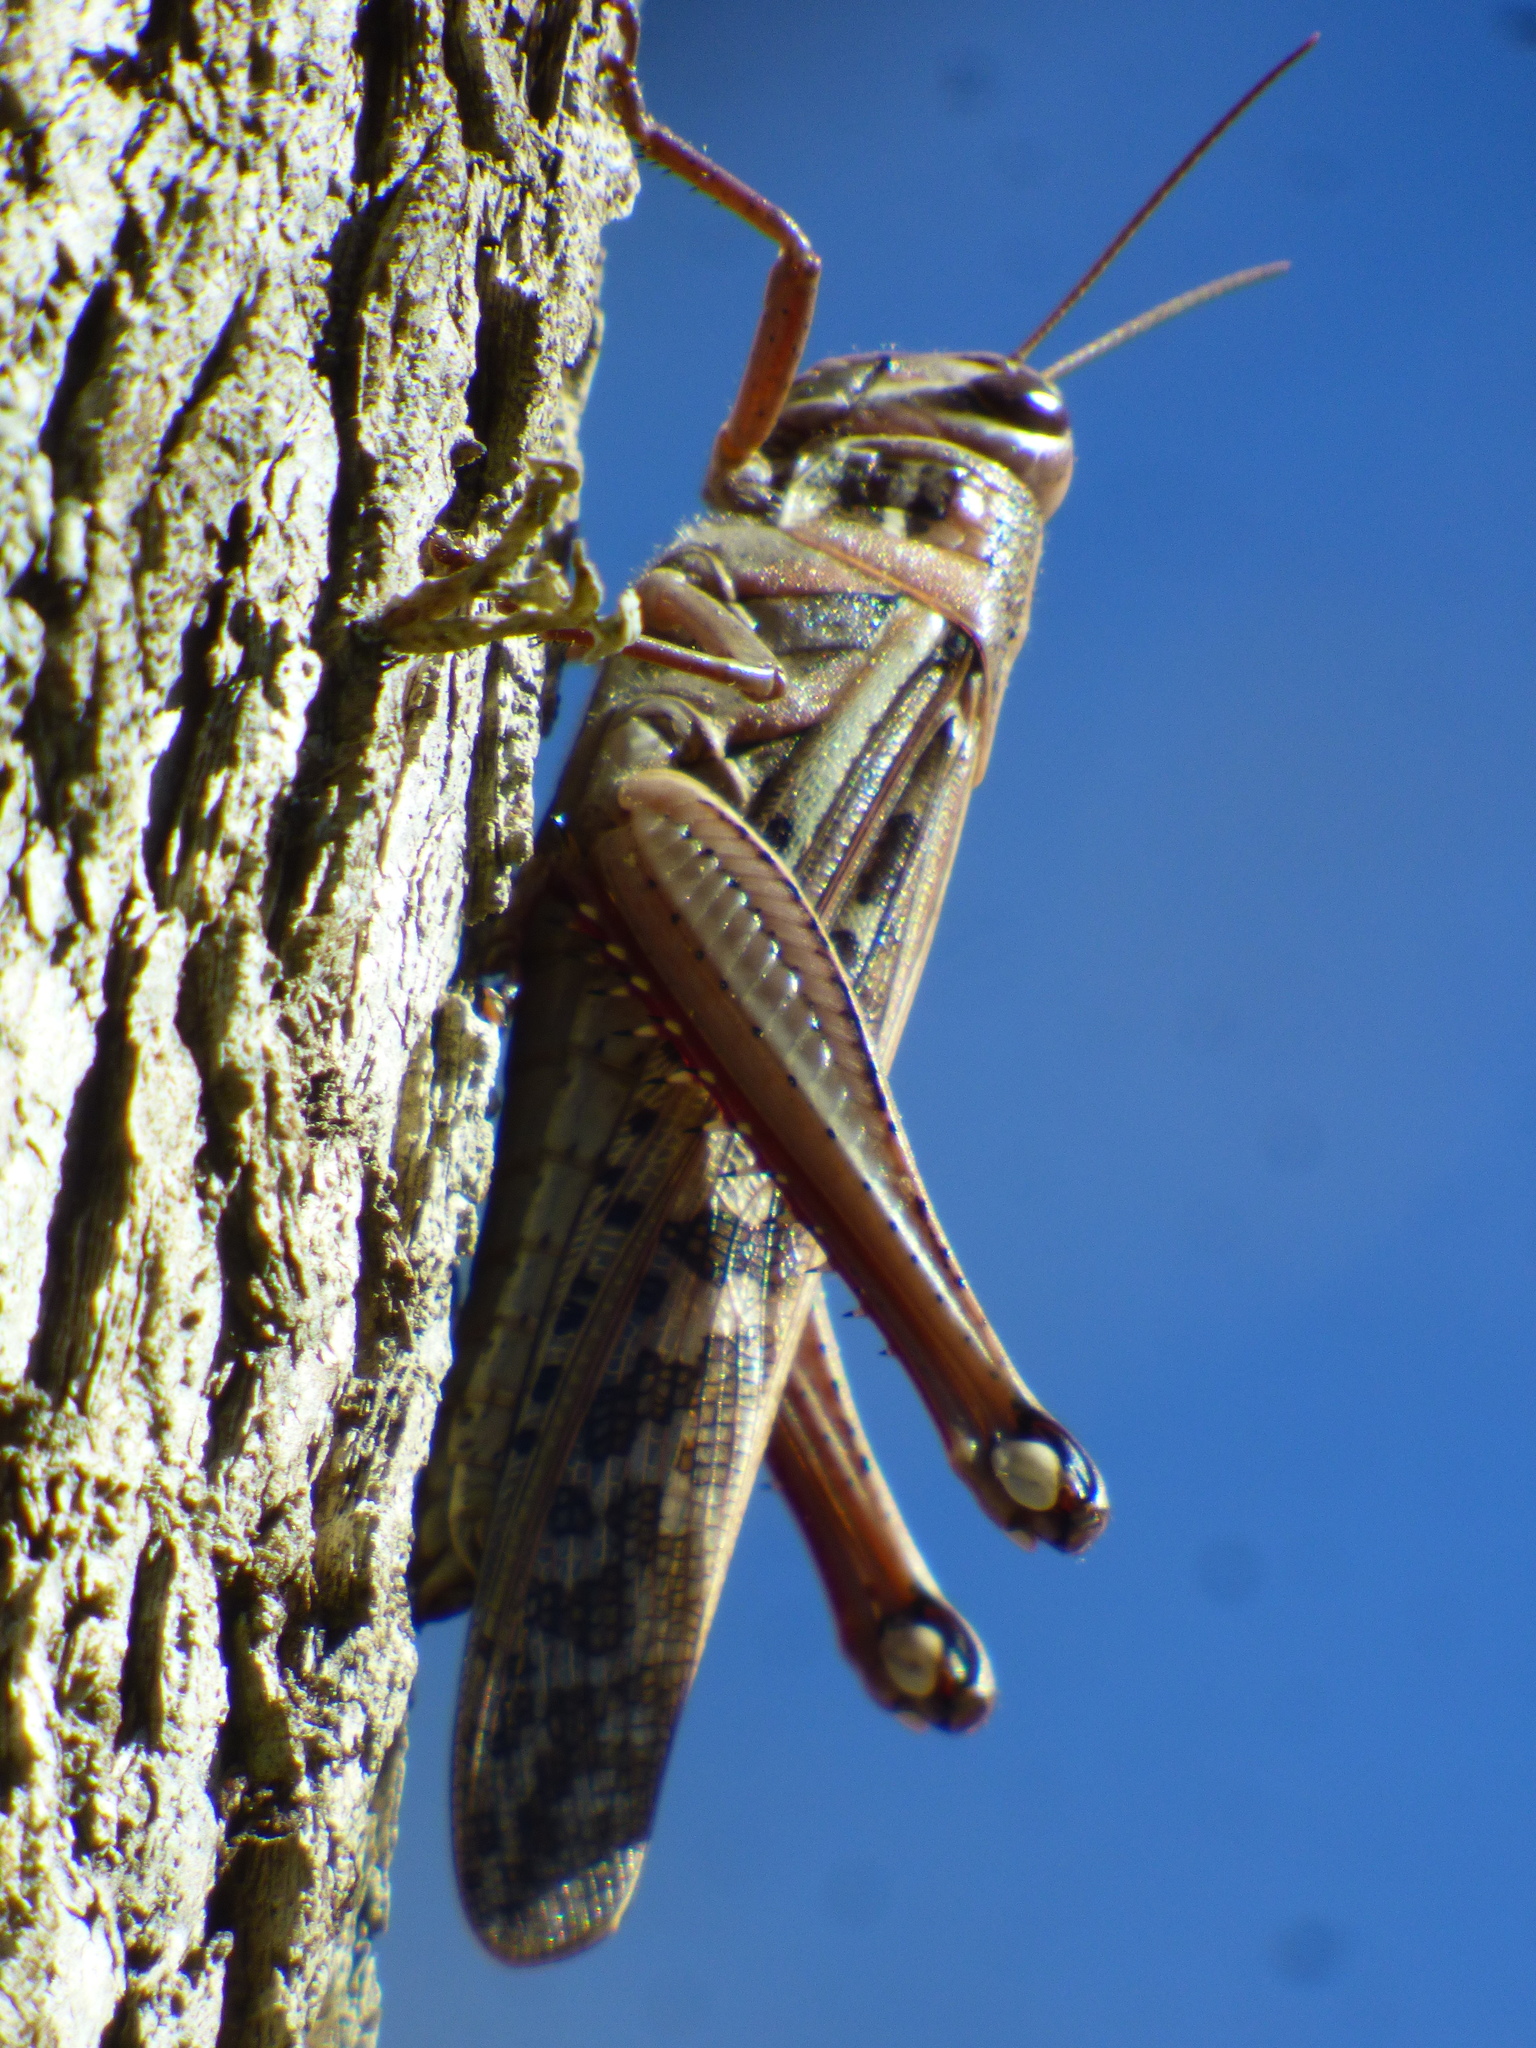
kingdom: Animalia
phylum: Arthropoda
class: Insecta
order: Orthoptera
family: Acrididae
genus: Schistocerca
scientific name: Schistocerca americana
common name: American bird locust
